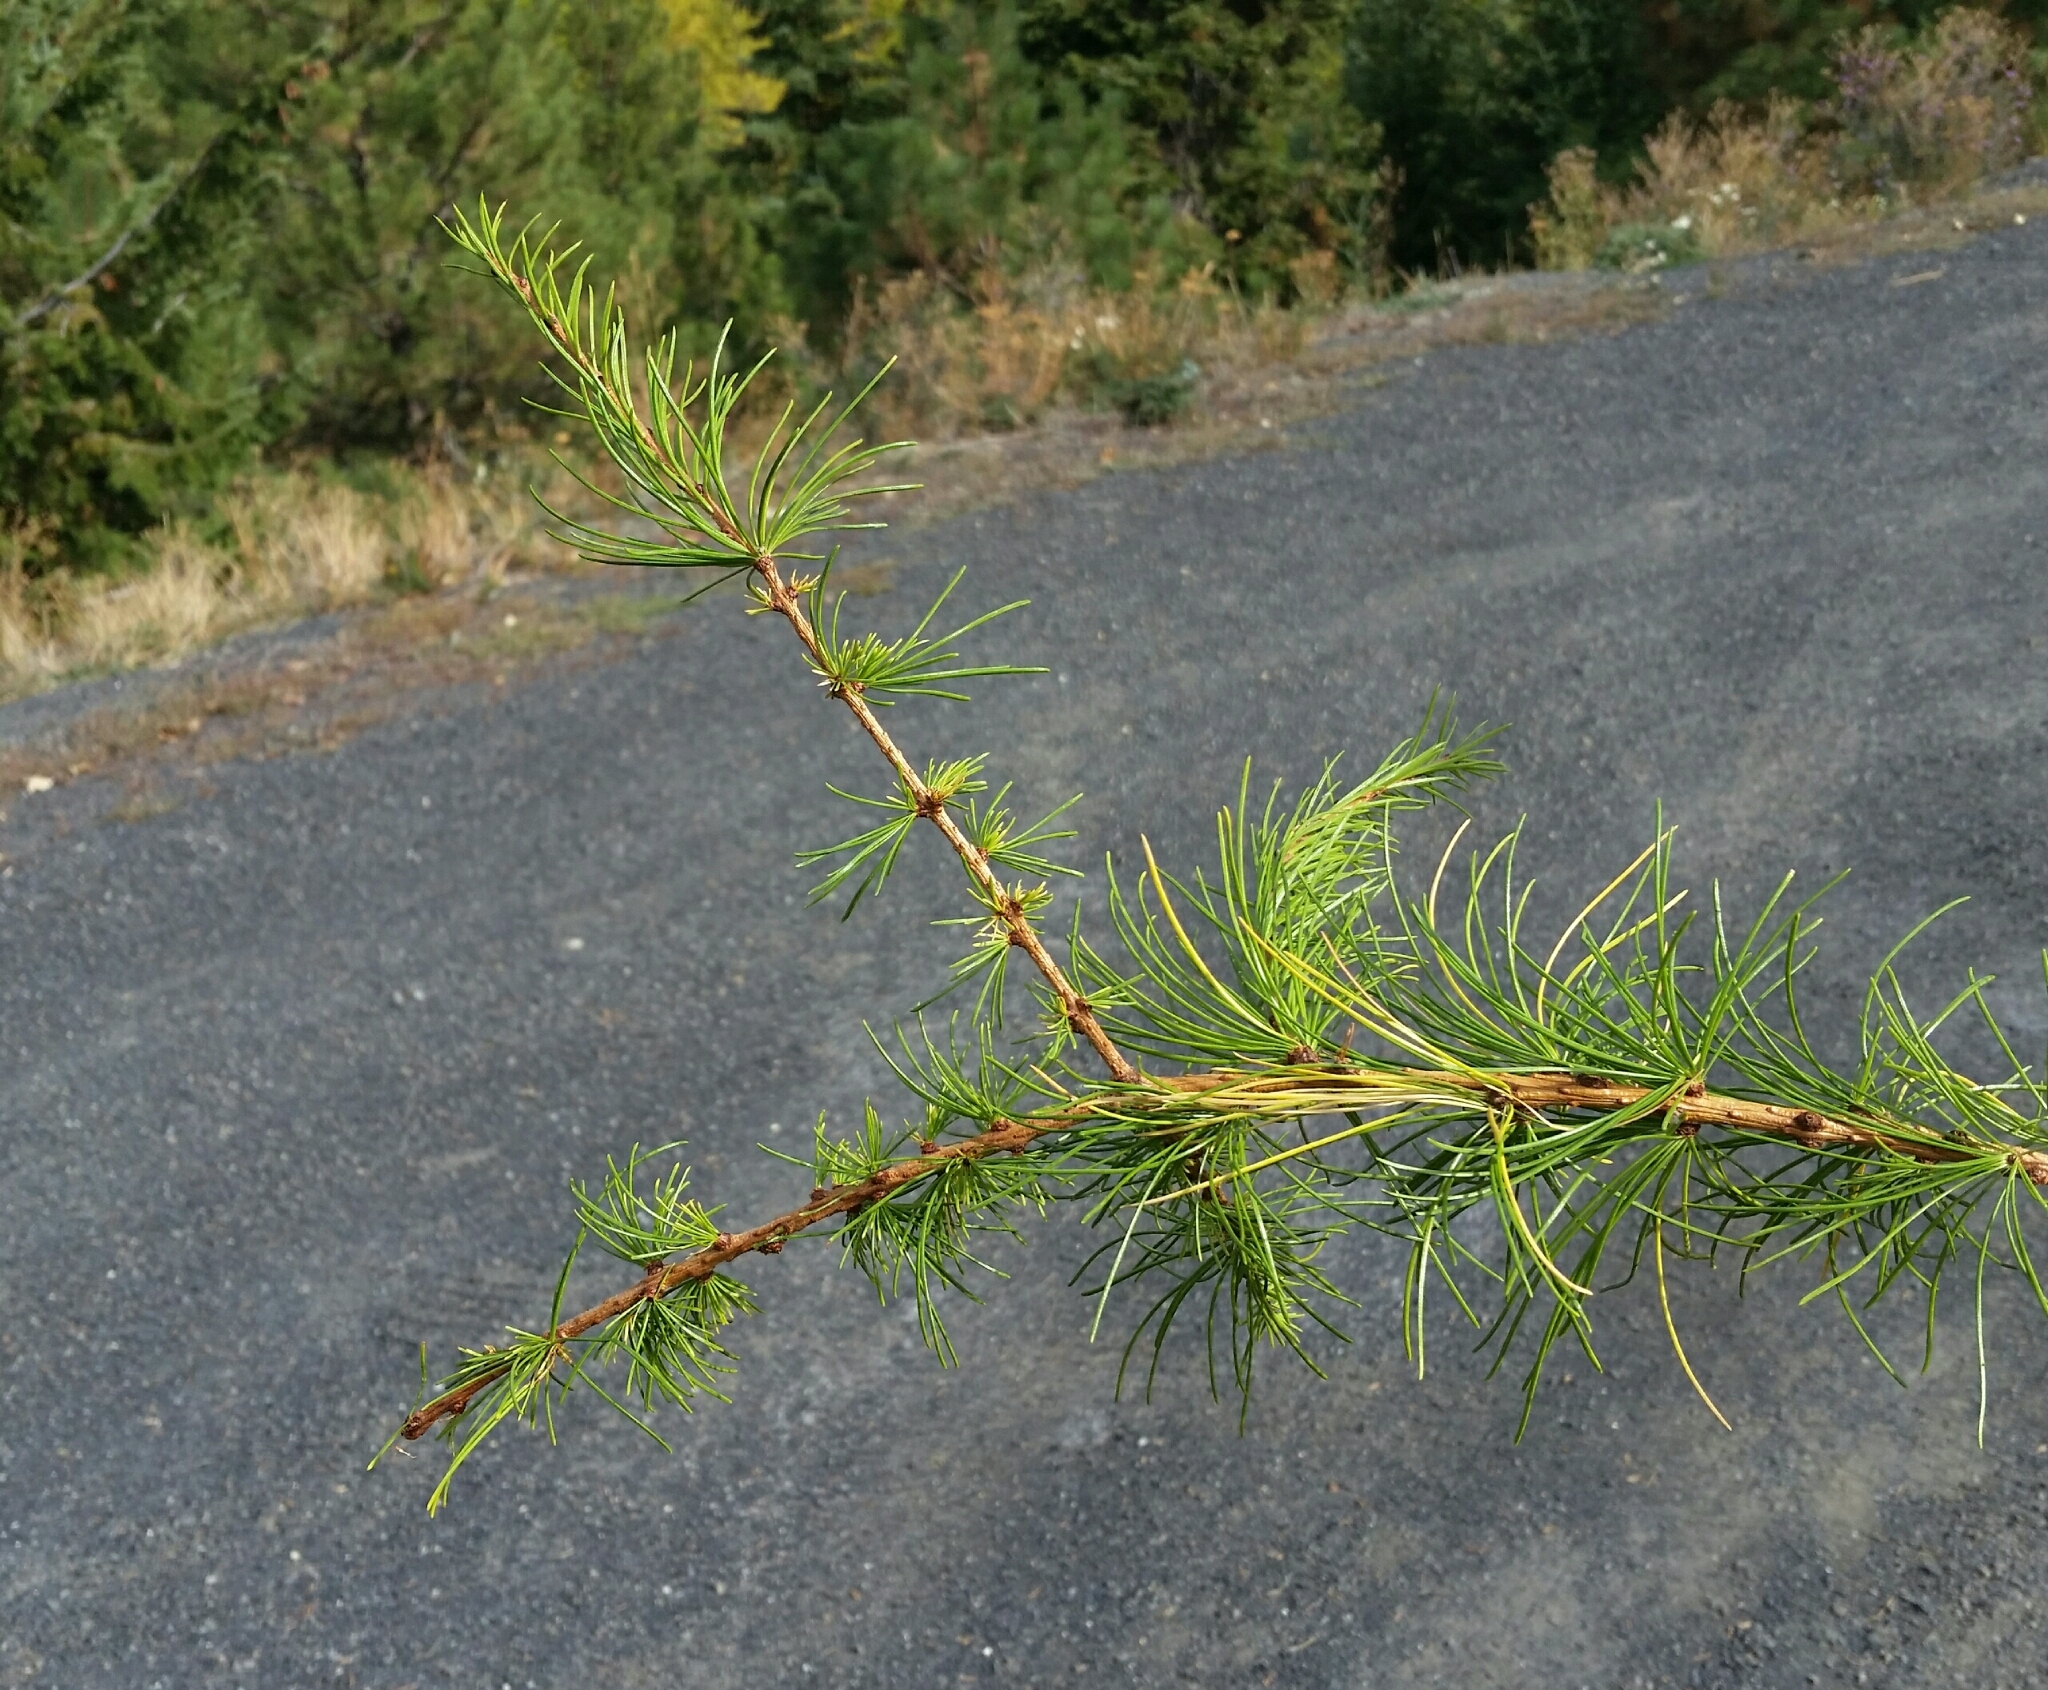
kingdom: Plantae
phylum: Tracheophyta
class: Pinopsida
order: Pinales
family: Pinaceae
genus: Larix
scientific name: Larix occidentalis
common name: Western larch
